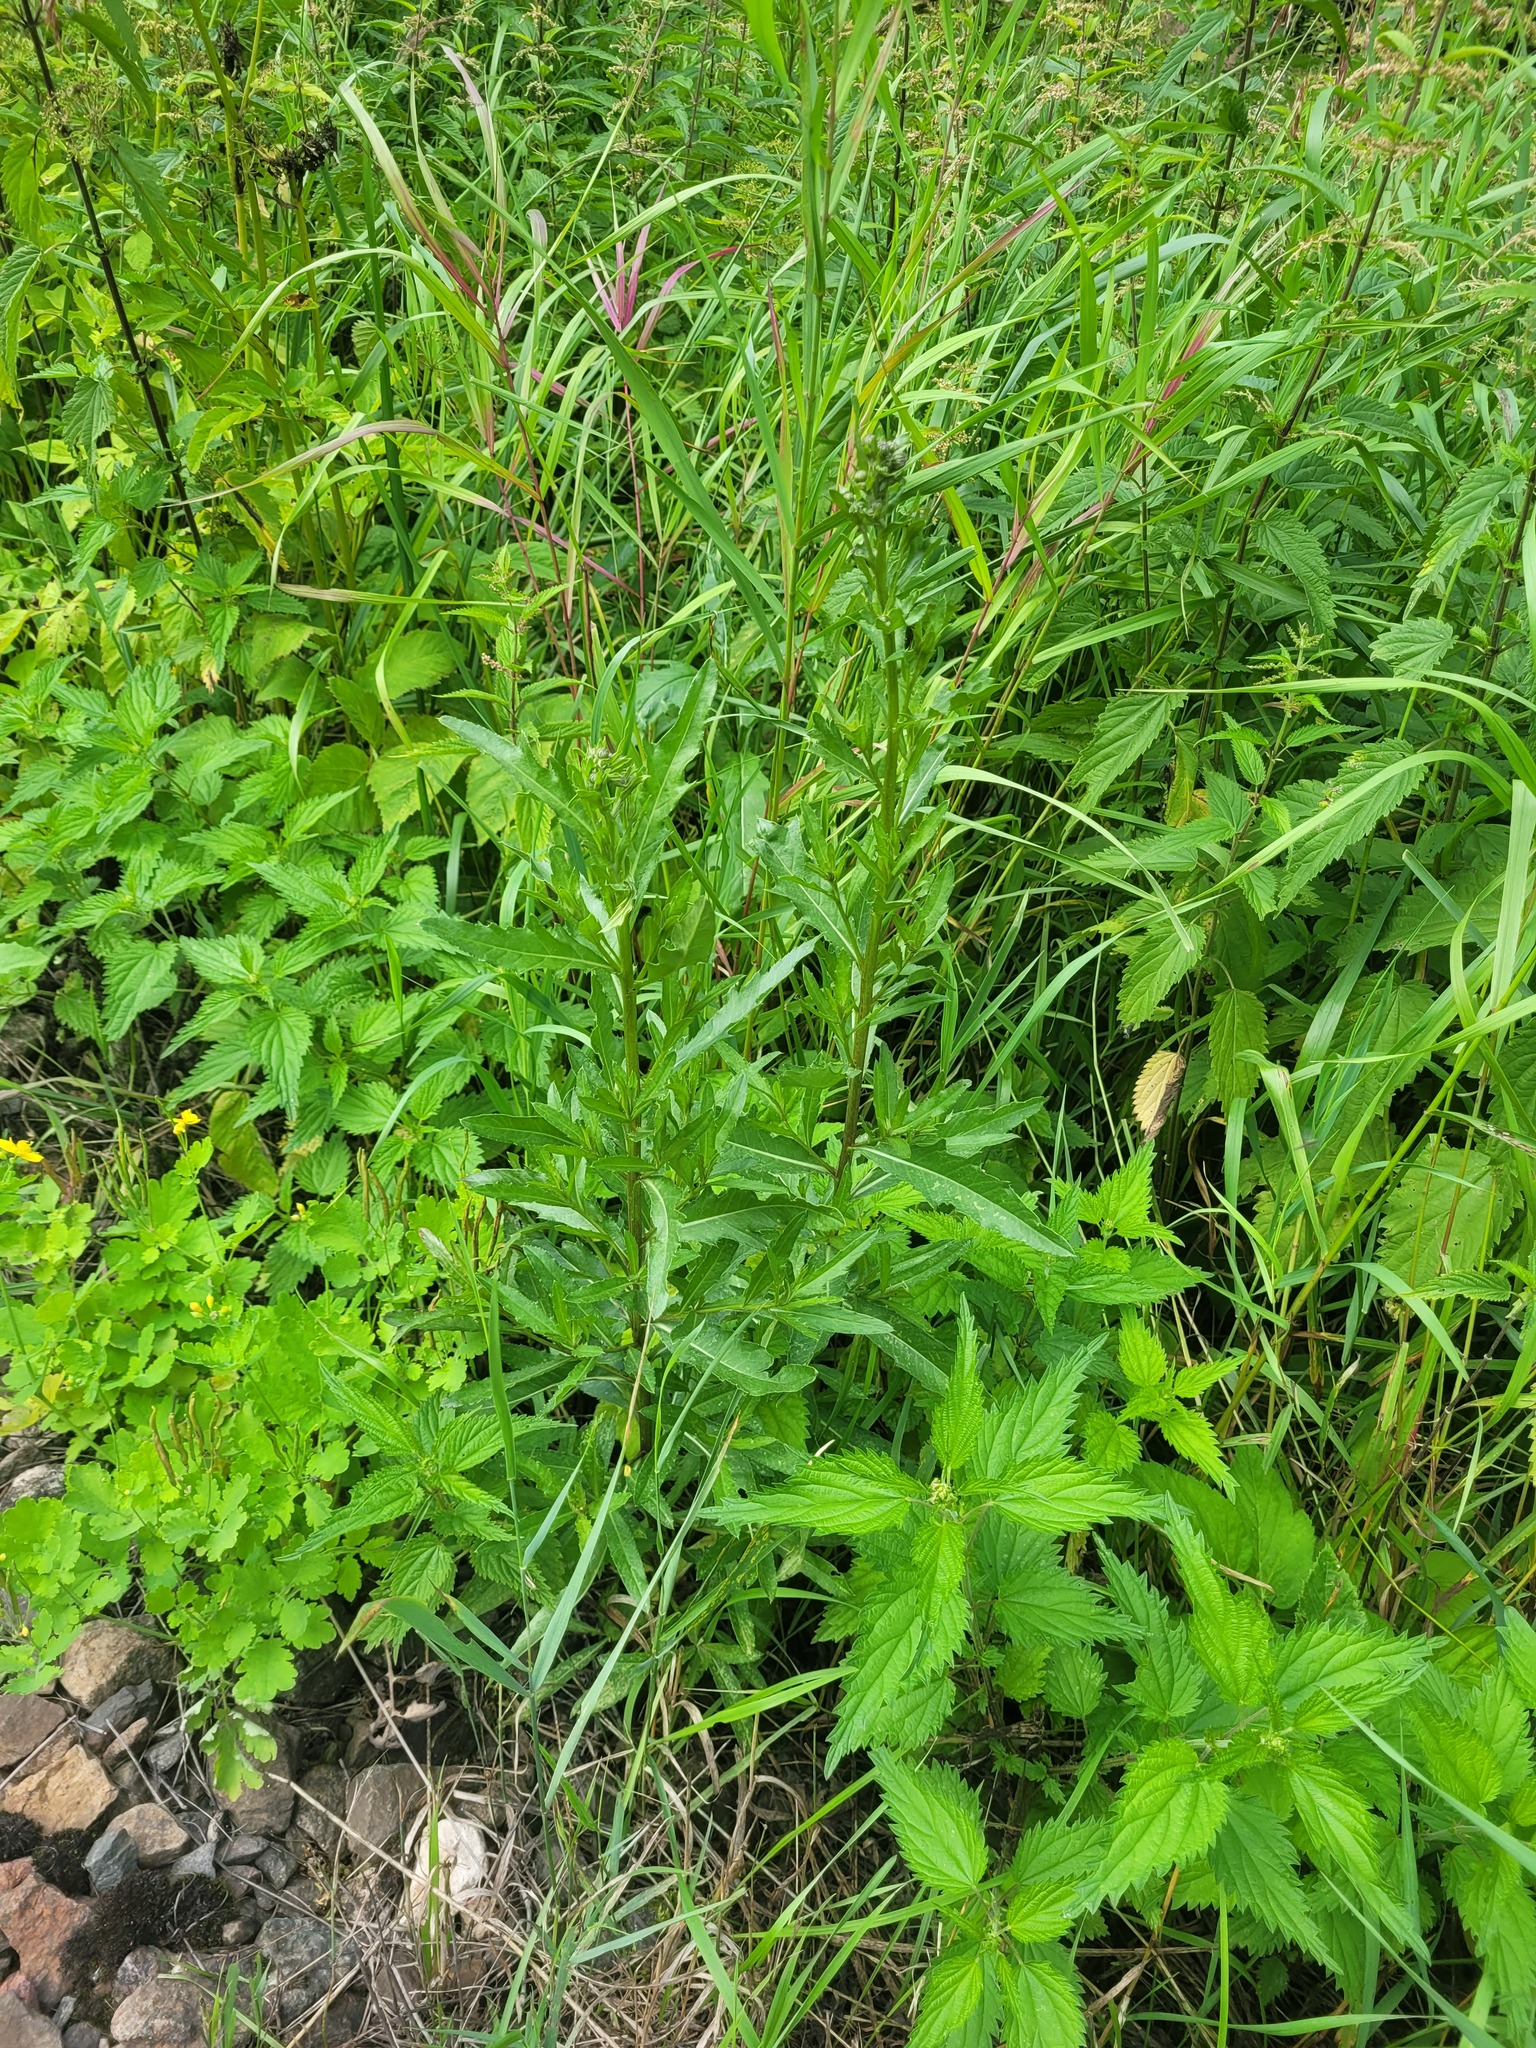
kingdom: Plantae
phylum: Tracheophyta
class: Magnoliopsida
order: Asterales
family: Asteraceae
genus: Cirsium
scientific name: Cirsium arvense
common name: Creeping thistle
